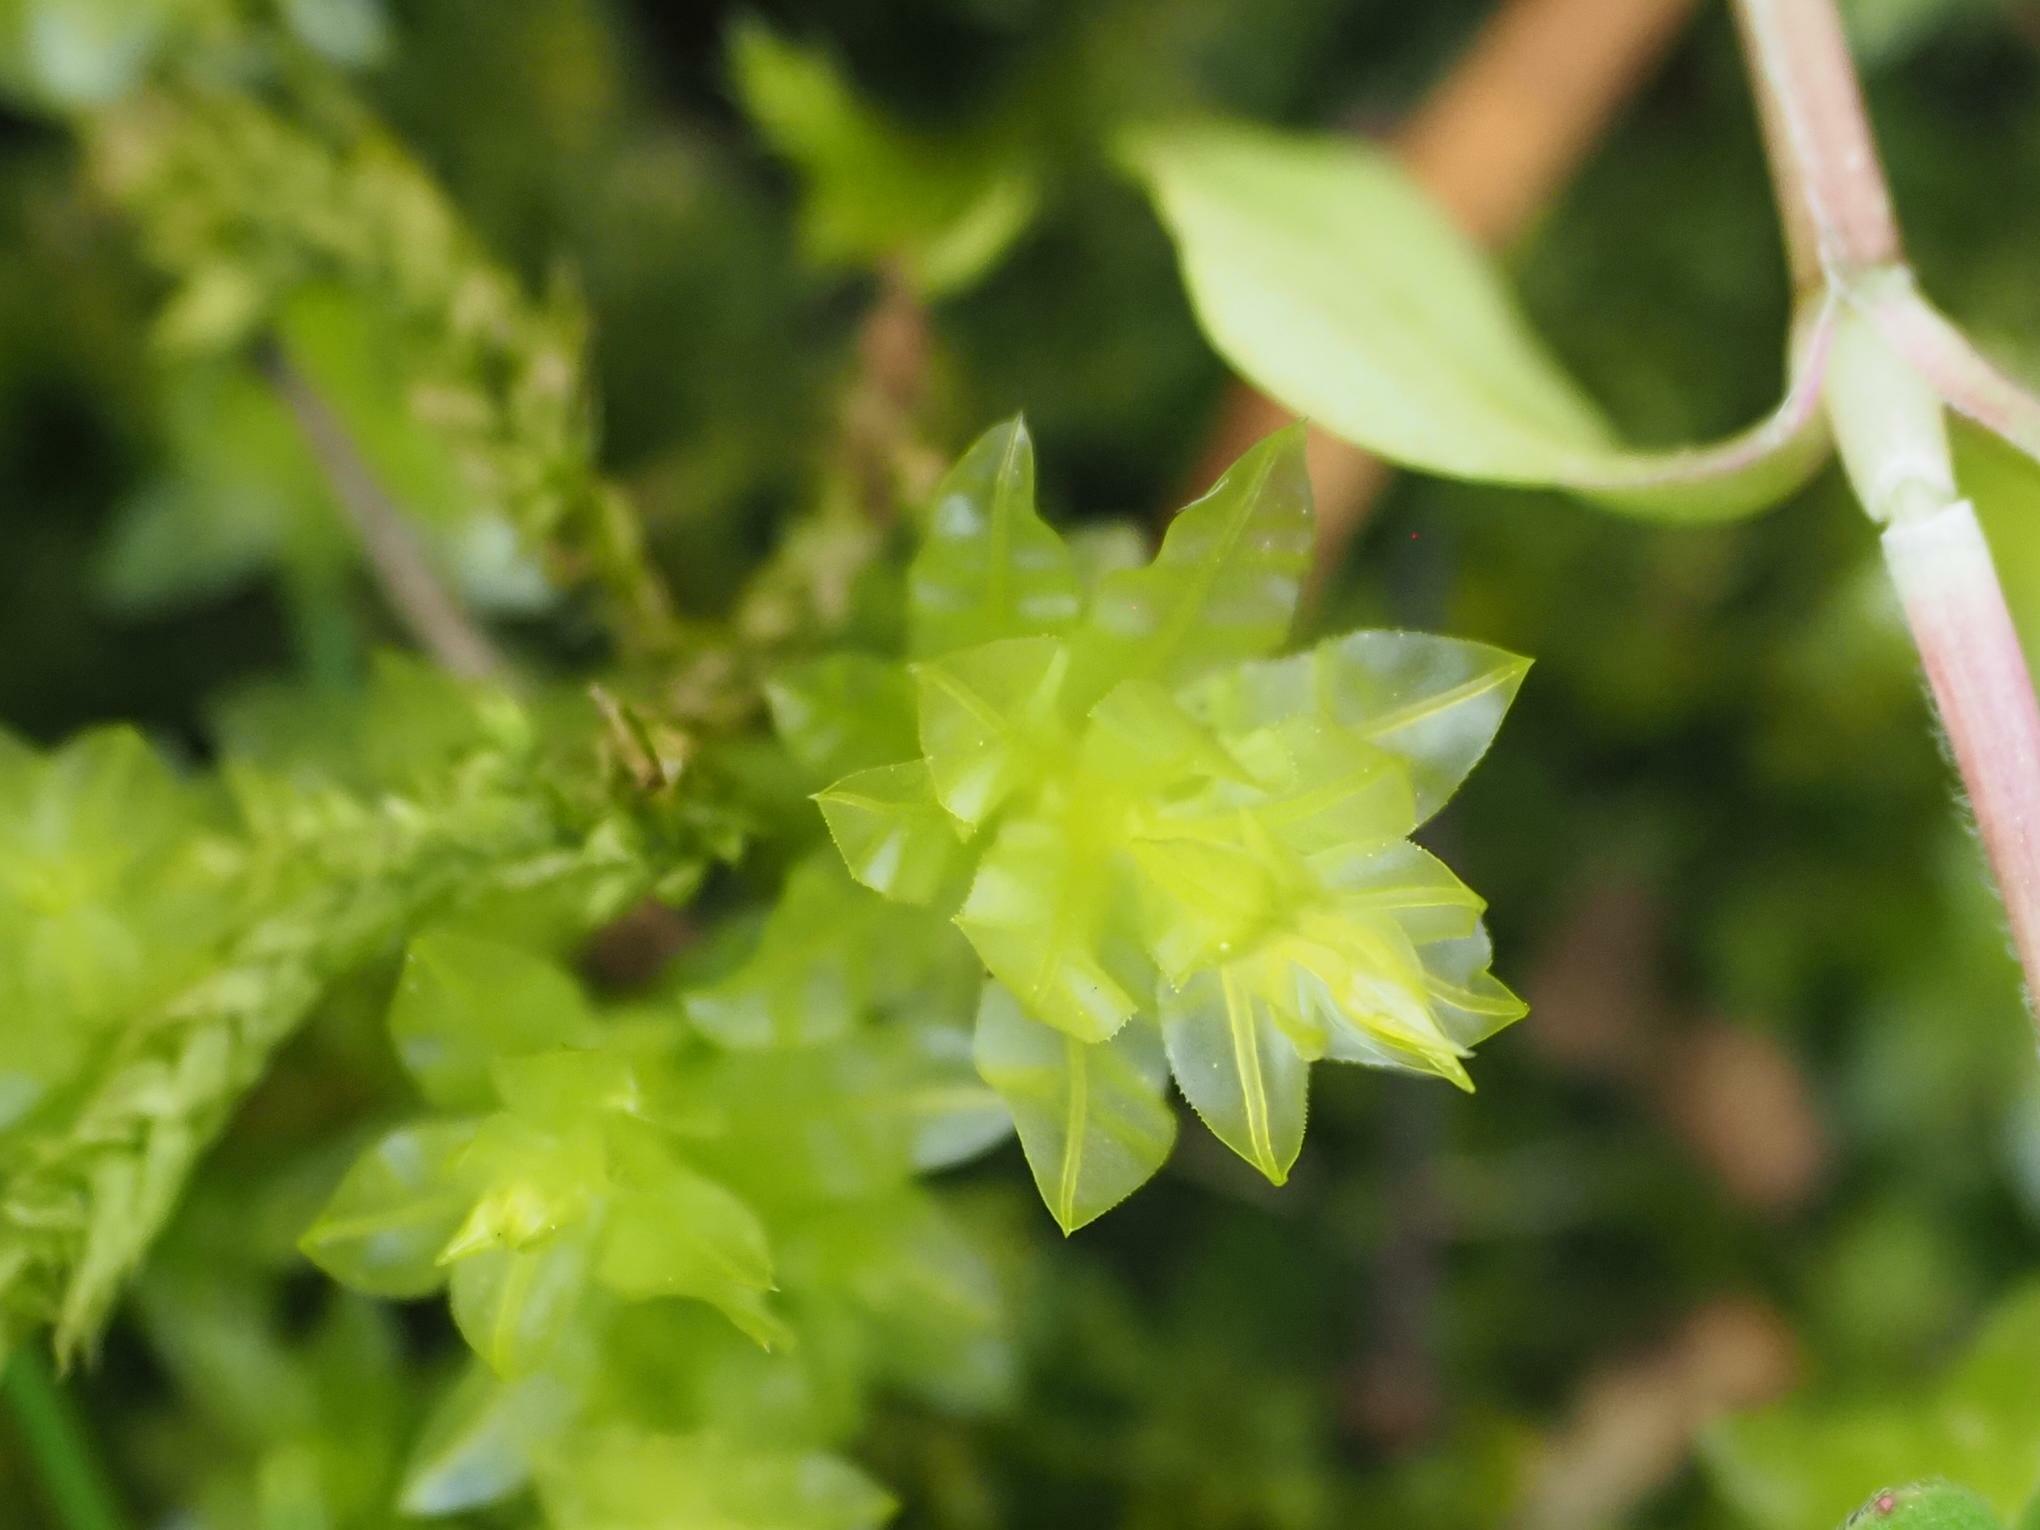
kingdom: Plantae
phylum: Bryophyta
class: Bryopsida
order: Bryales
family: Mniaceae
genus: Plagiomnium
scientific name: Plagiomnium undulatum
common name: Hart's-tongue thyme-moss
